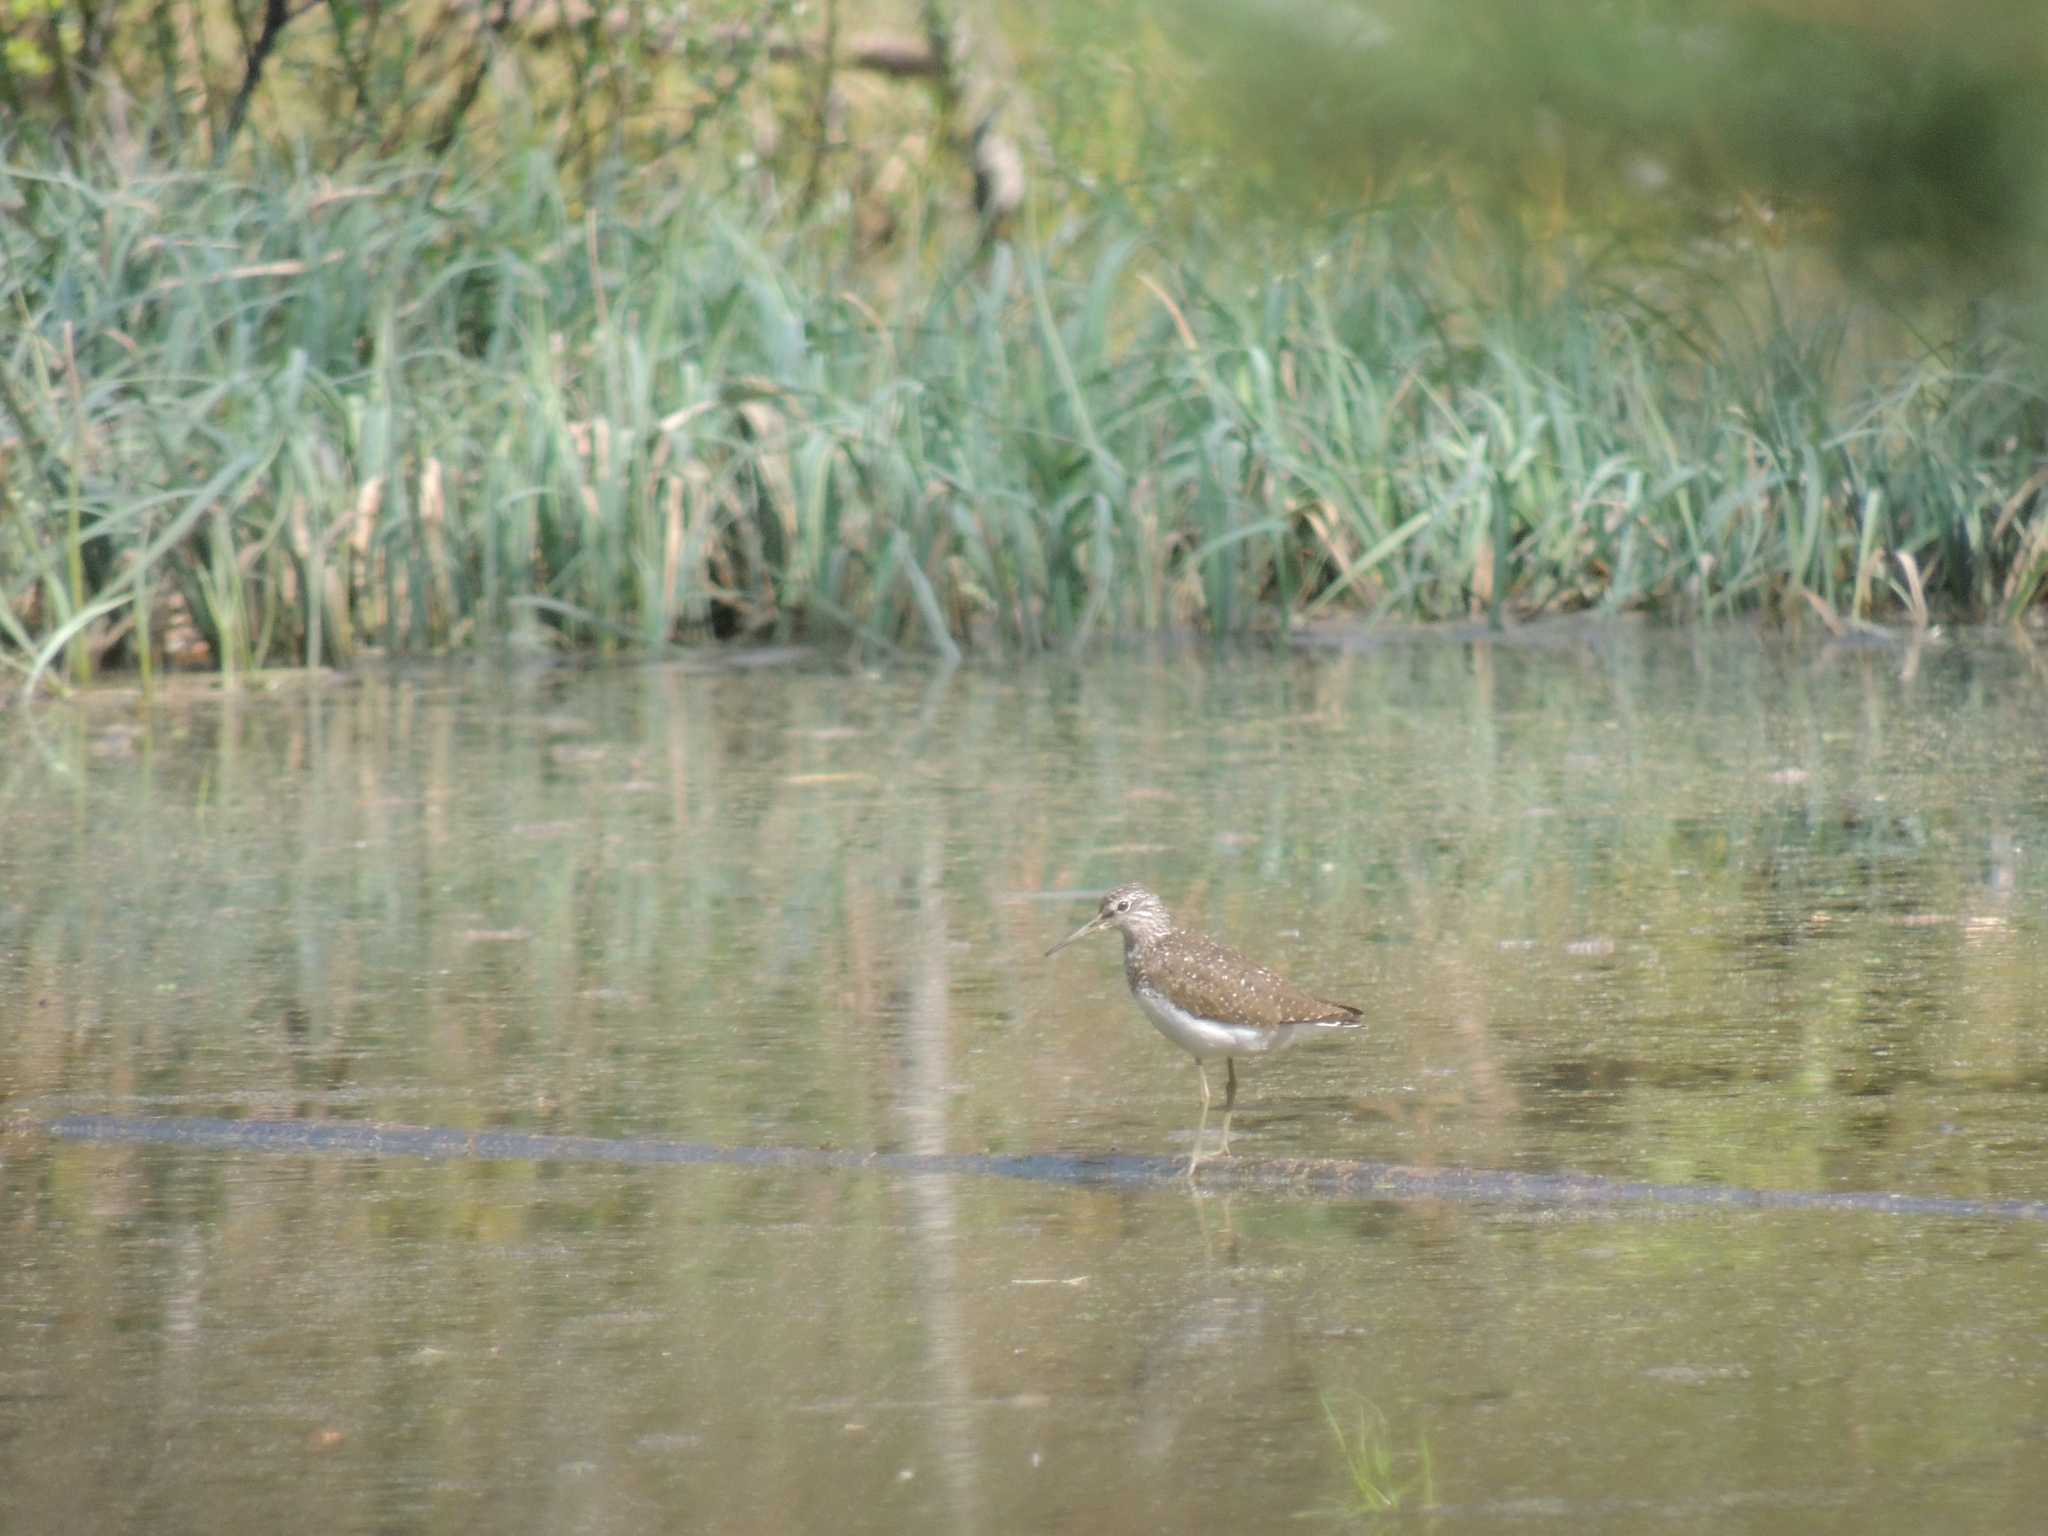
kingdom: Animalia
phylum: Chordata
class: Aves
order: Charadriiformes
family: Scolopacidae
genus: Tringa
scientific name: Tringa ochropus
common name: Green sandpiper
